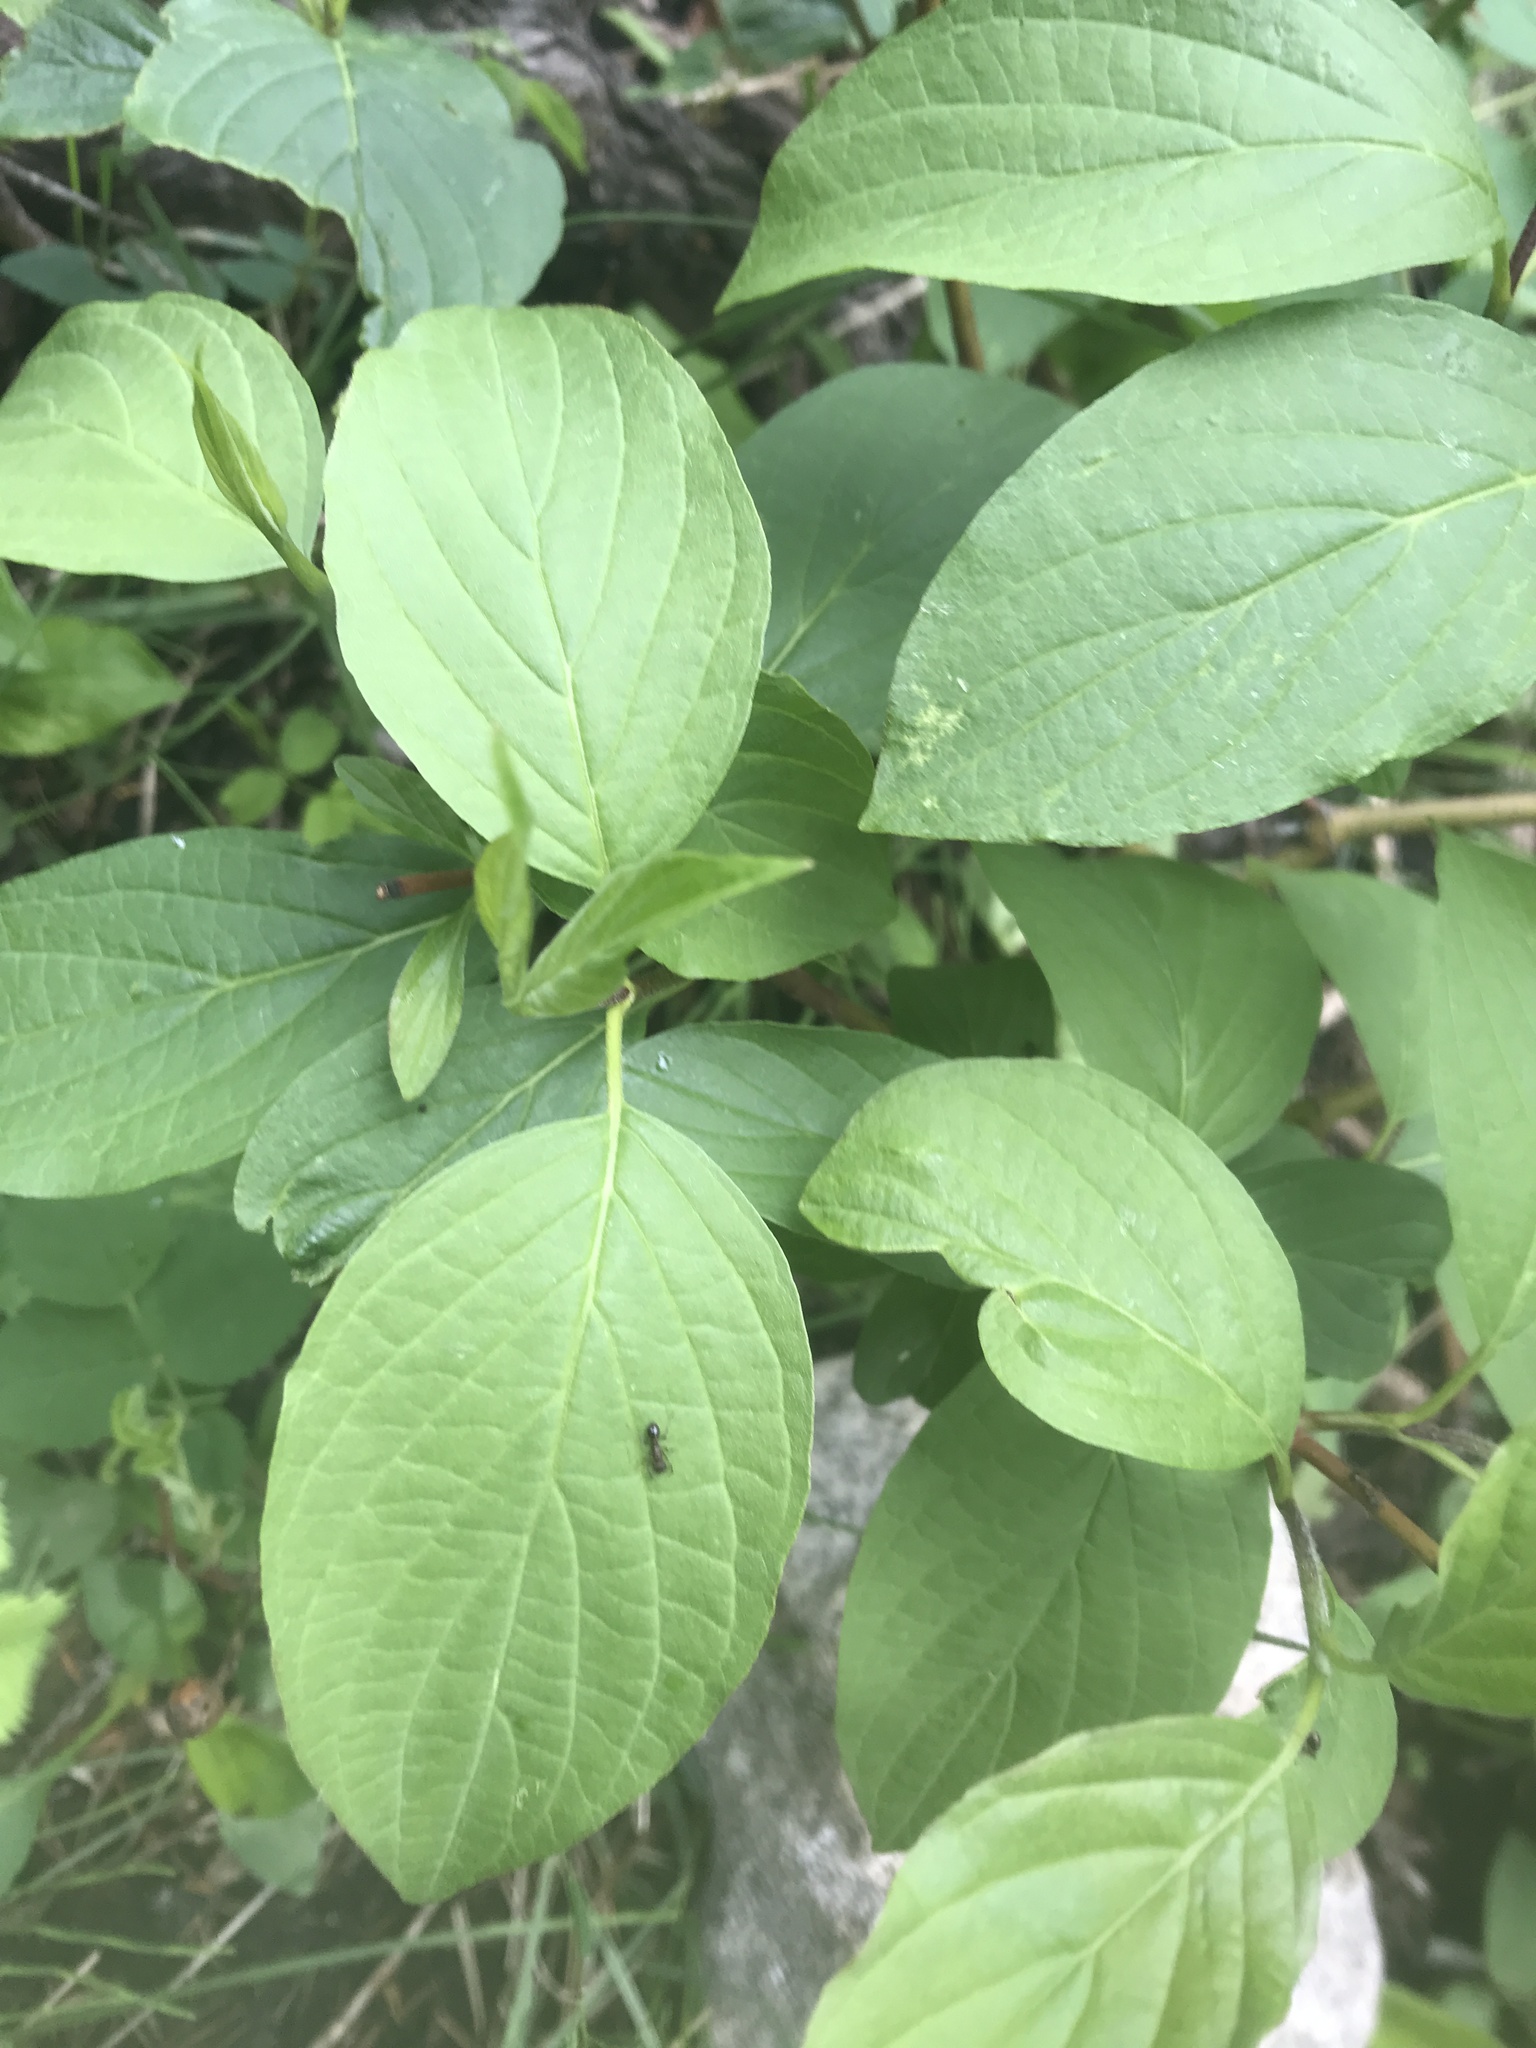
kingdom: Plantae
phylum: Tracheophyta
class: Magnoliopsida
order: Cornales
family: Cornaceae
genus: Cornus
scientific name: Cornus sericea
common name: Red-osier dogwood
